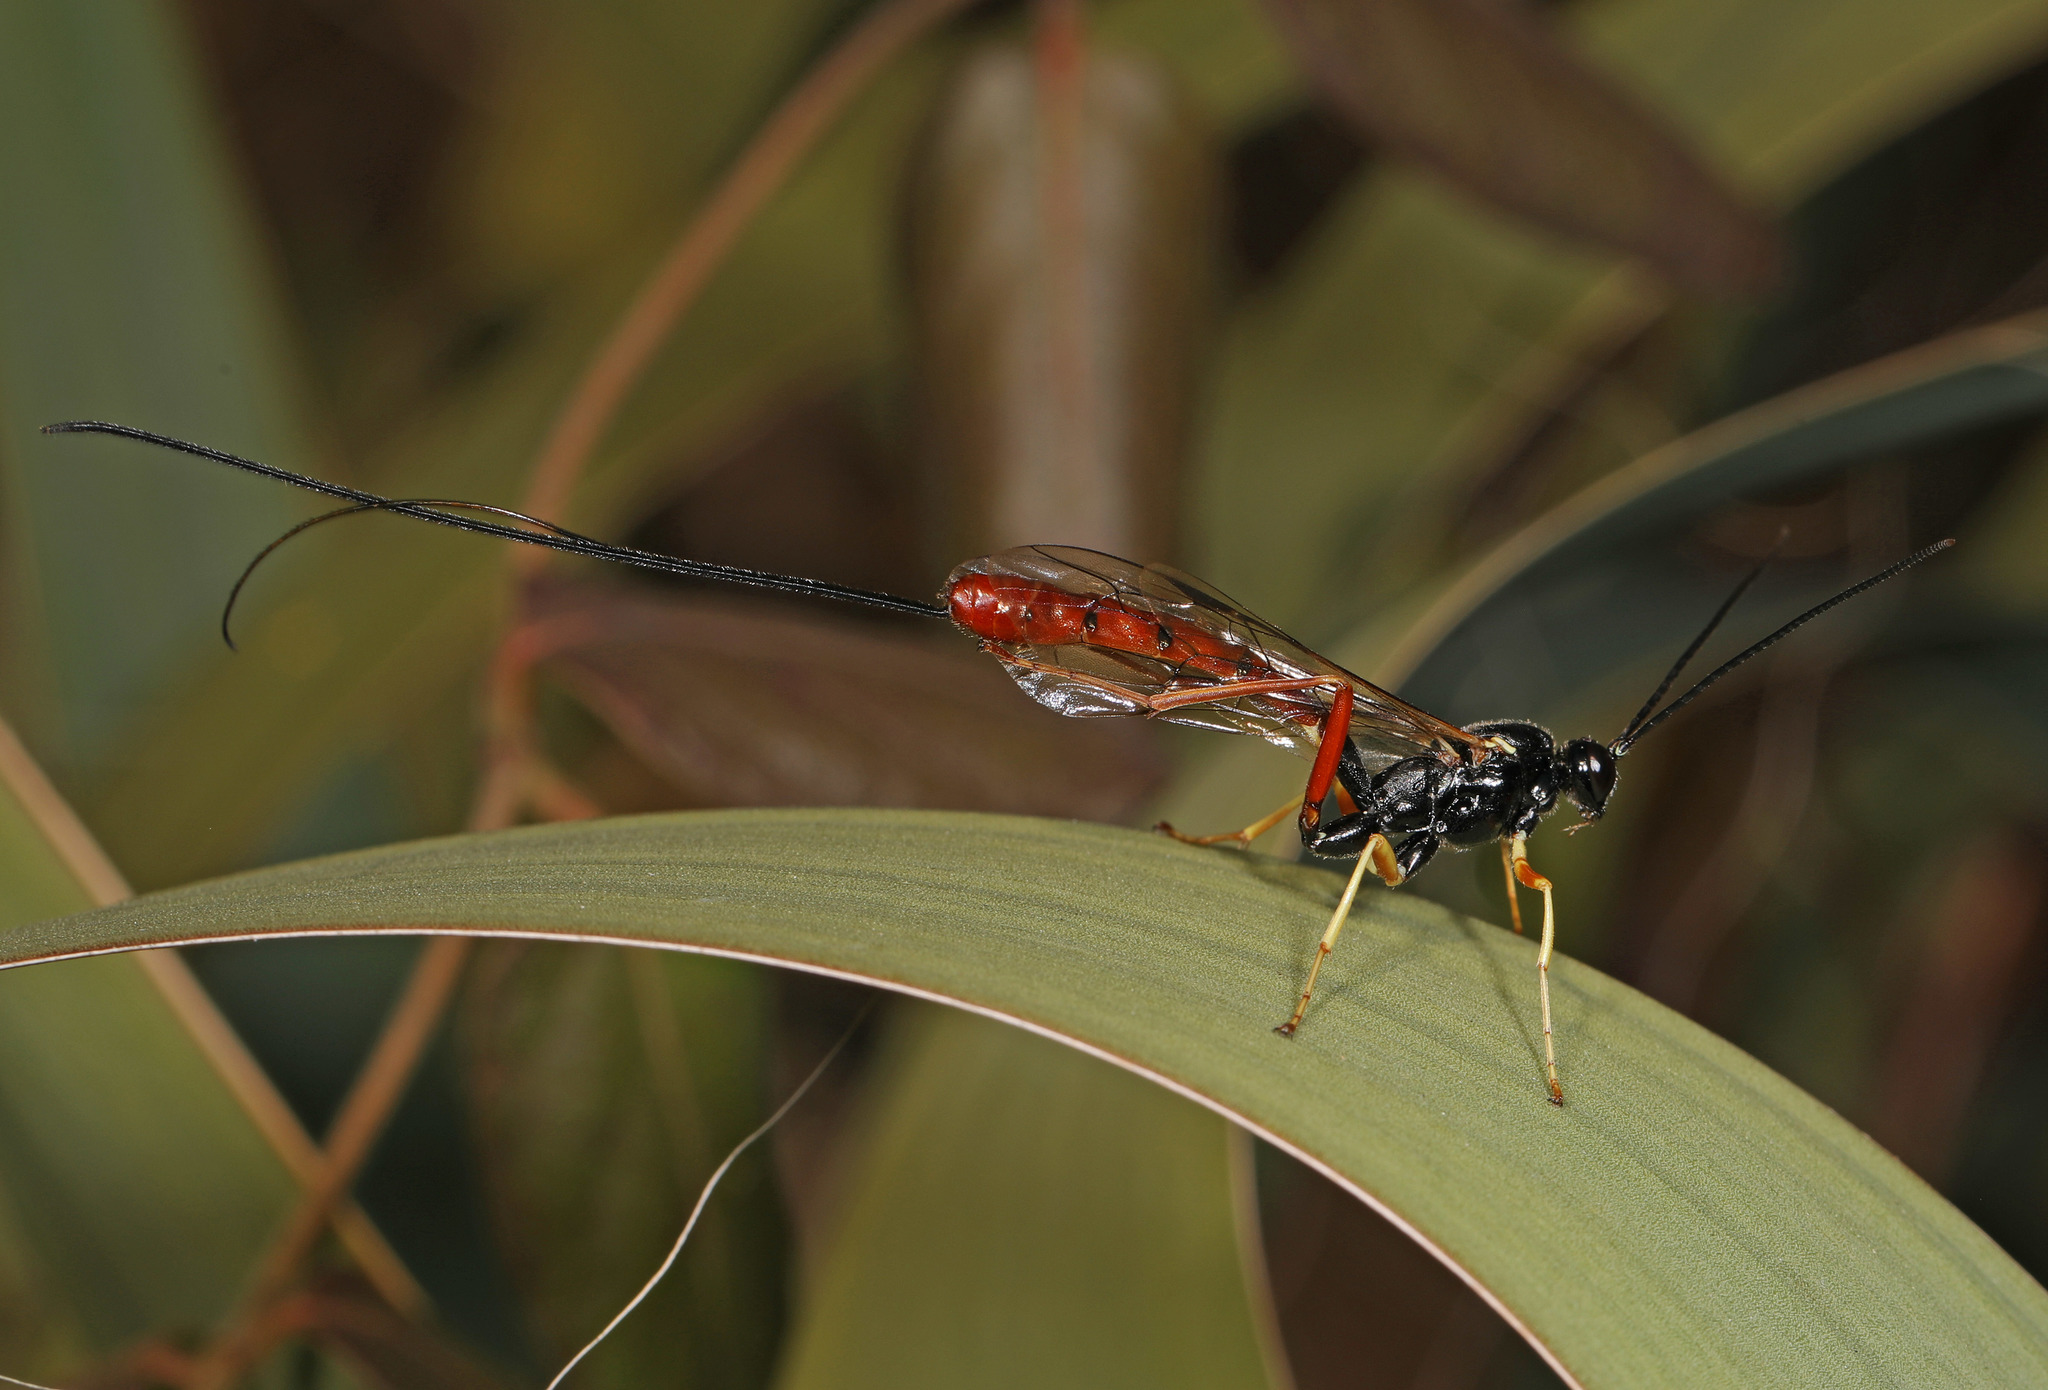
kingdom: Animalia
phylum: Arthropoda
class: Insecta
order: Hymenoptera
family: Ichneumonidae
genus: Dolichomitus
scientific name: Dolichomitus irritator
